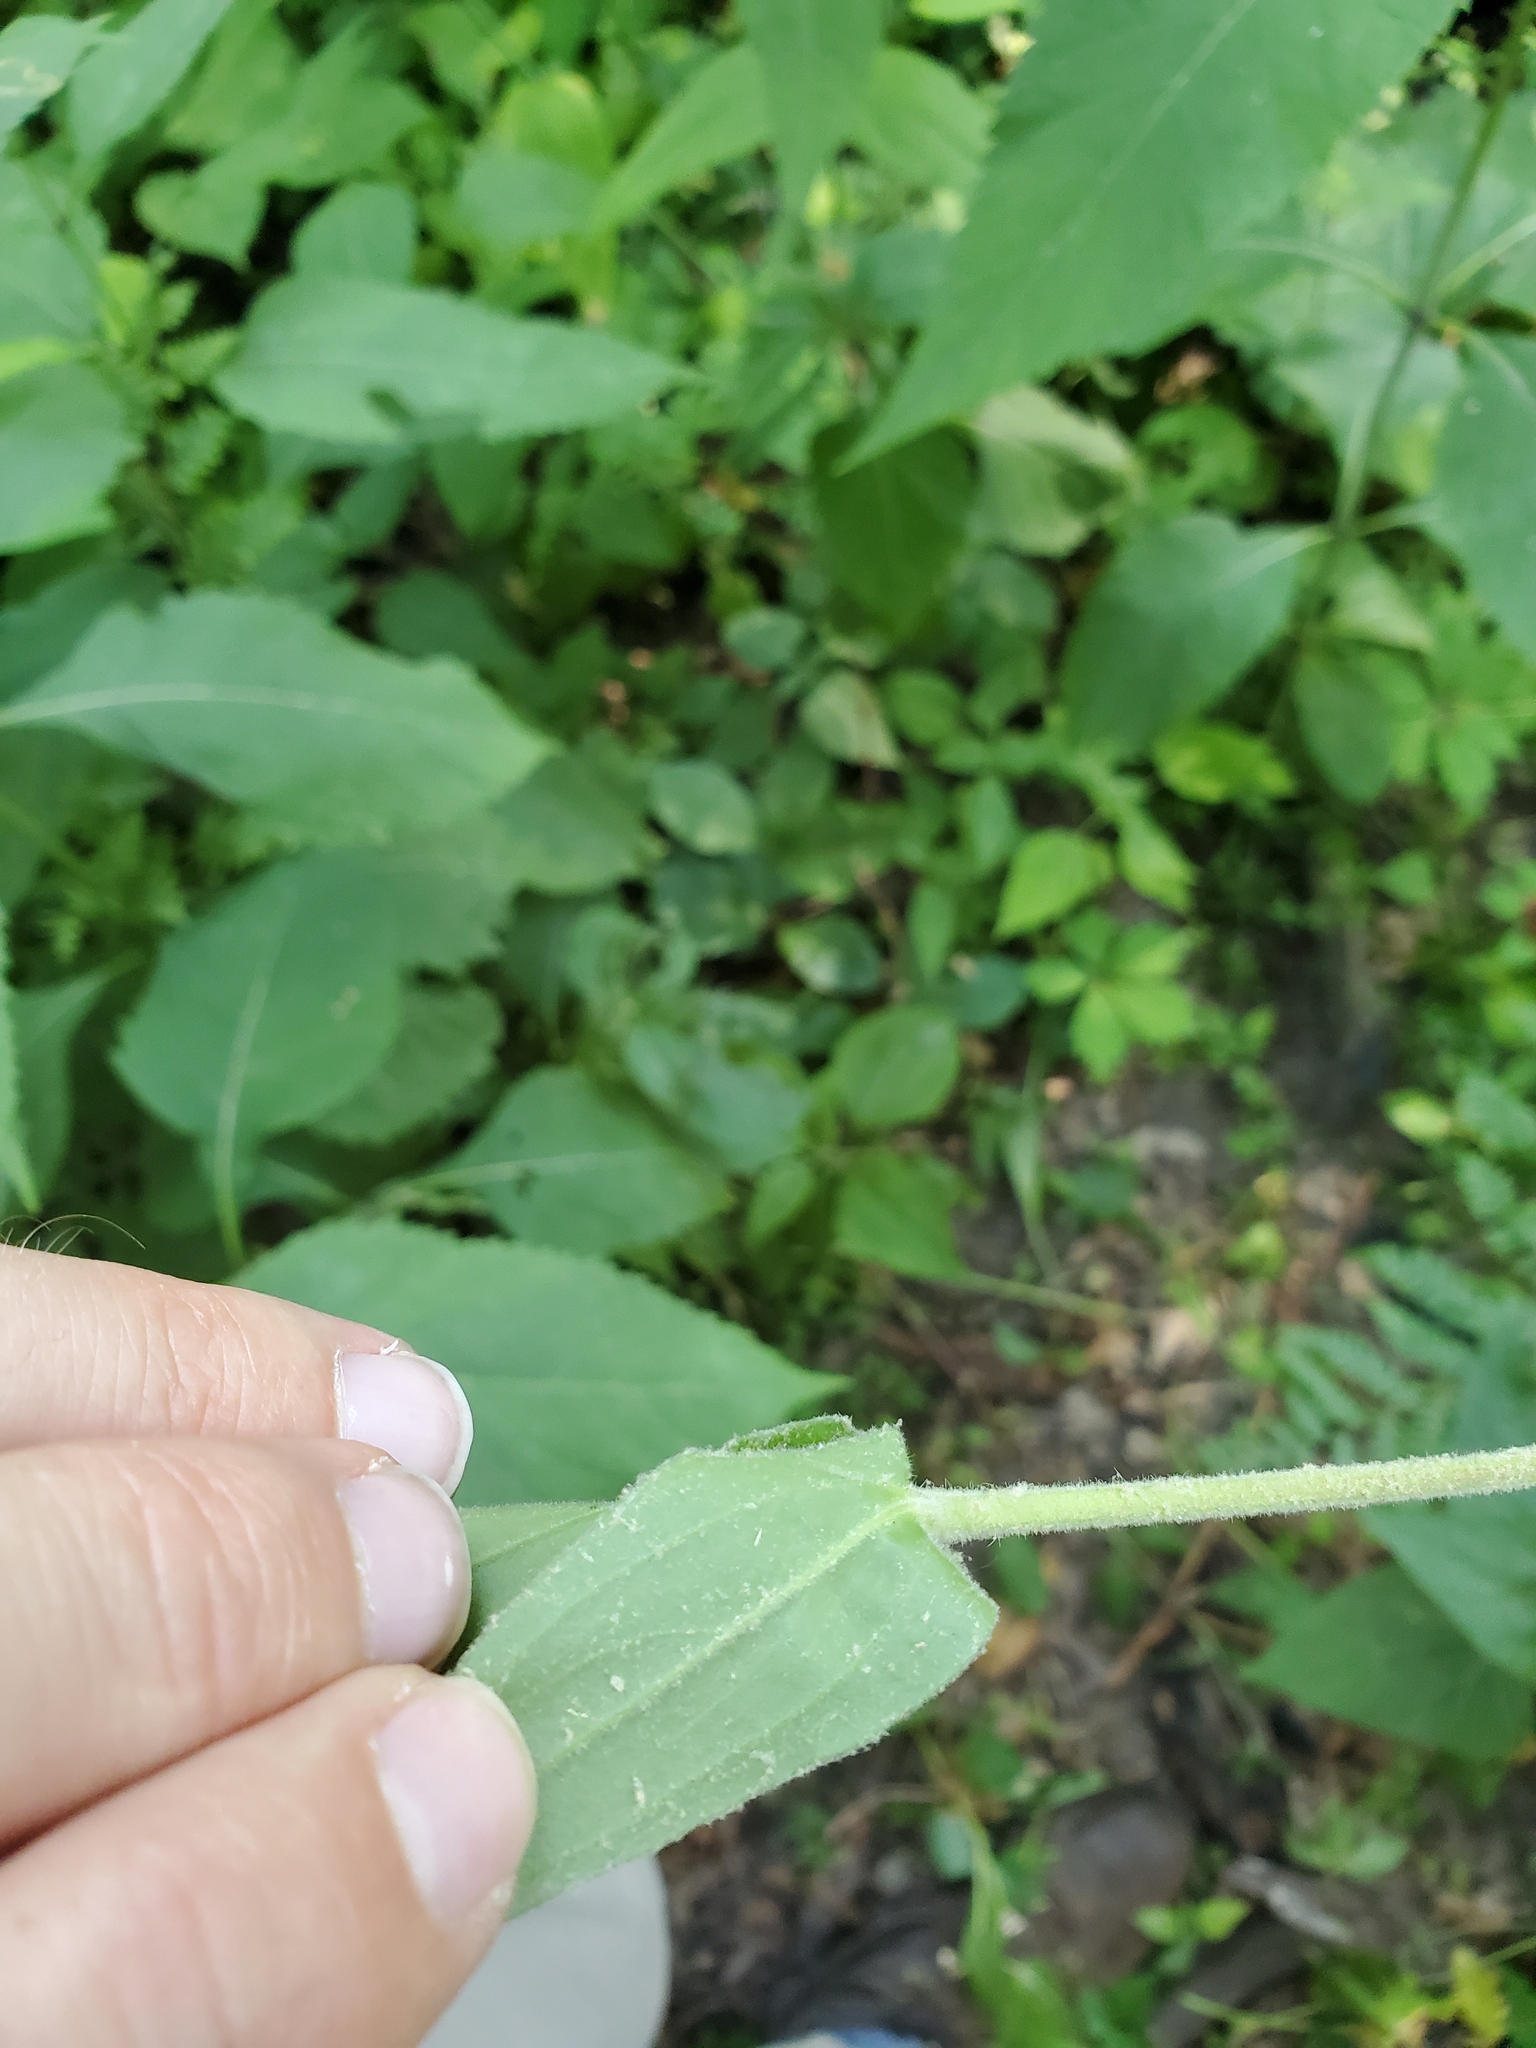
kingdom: Plantae
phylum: Tracheophyta
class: Magnoliopsida
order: Caryophyllales
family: Caryophyllaceae
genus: Silene
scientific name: Silene latifolia
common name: White campion
